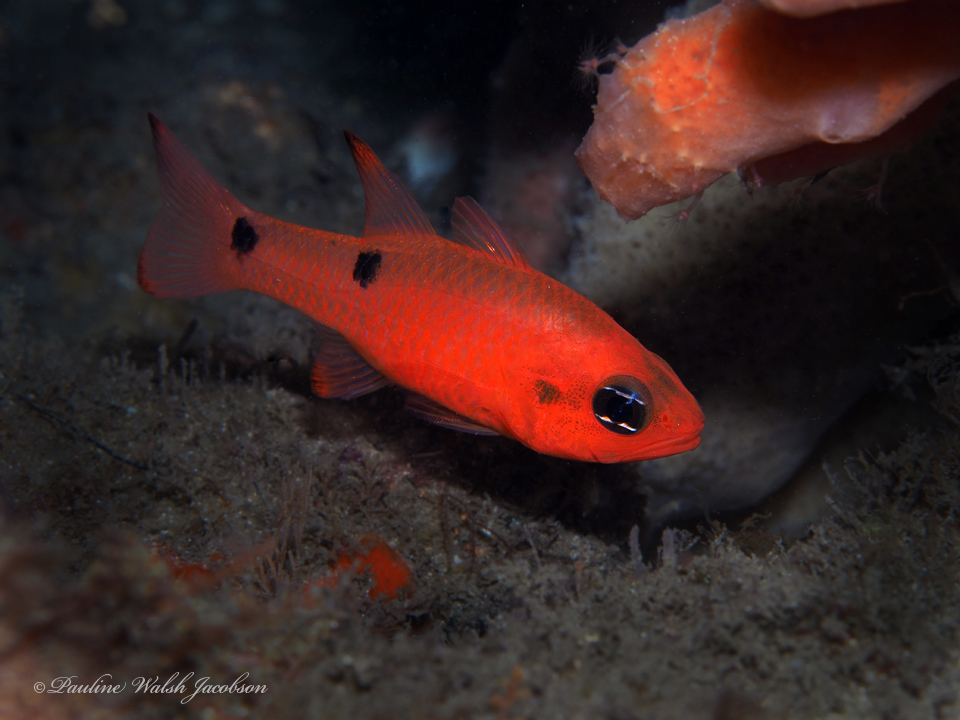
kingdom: Animalia
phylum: Chordata
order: Perciformes
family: Apogonidae
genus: Apogon
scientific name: Apogon pseudomaculatus
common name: Twospot cardinalfish
